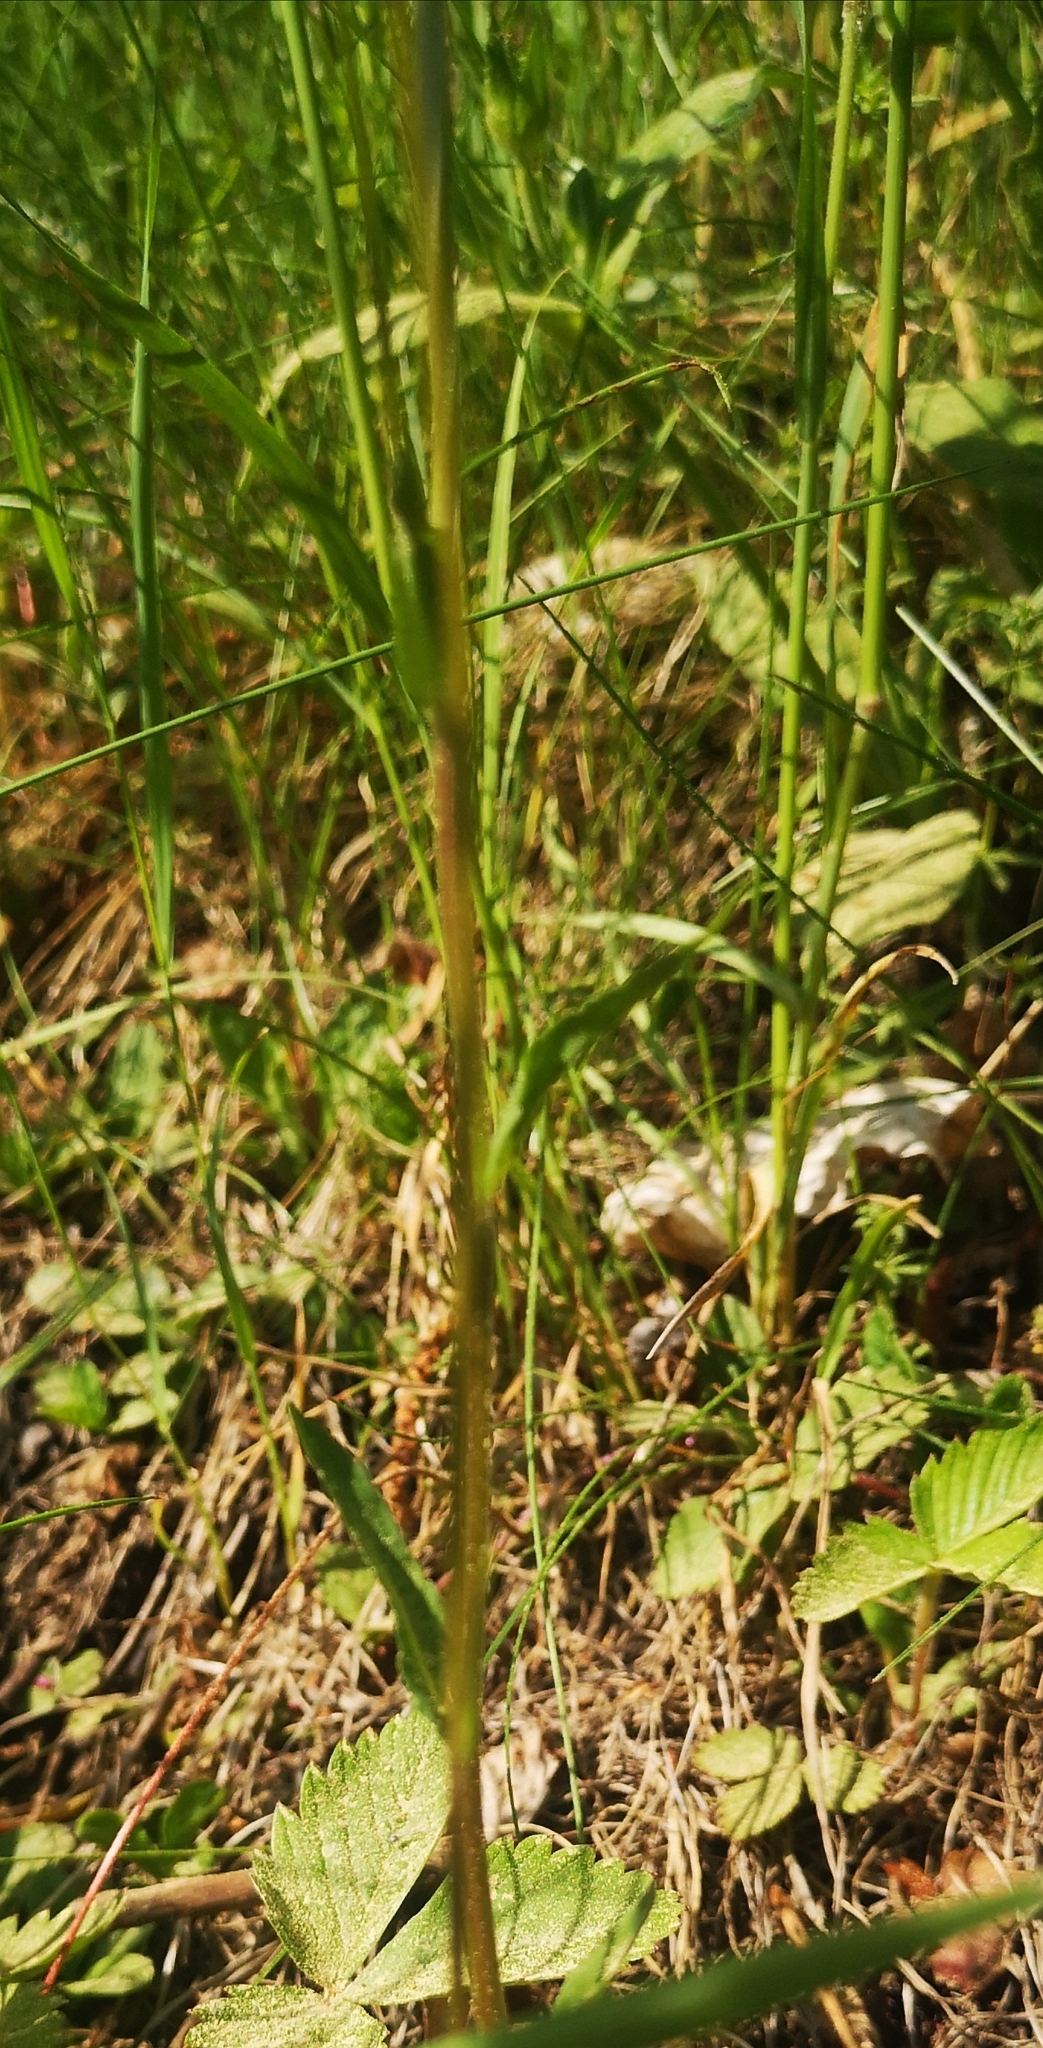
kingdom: Plantae
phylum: Tracheophyta
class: Magnoliopsida
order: Asterales
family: Campanulaceae
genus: Campanula
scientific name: Campanula patula
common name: Spreading bellflower
